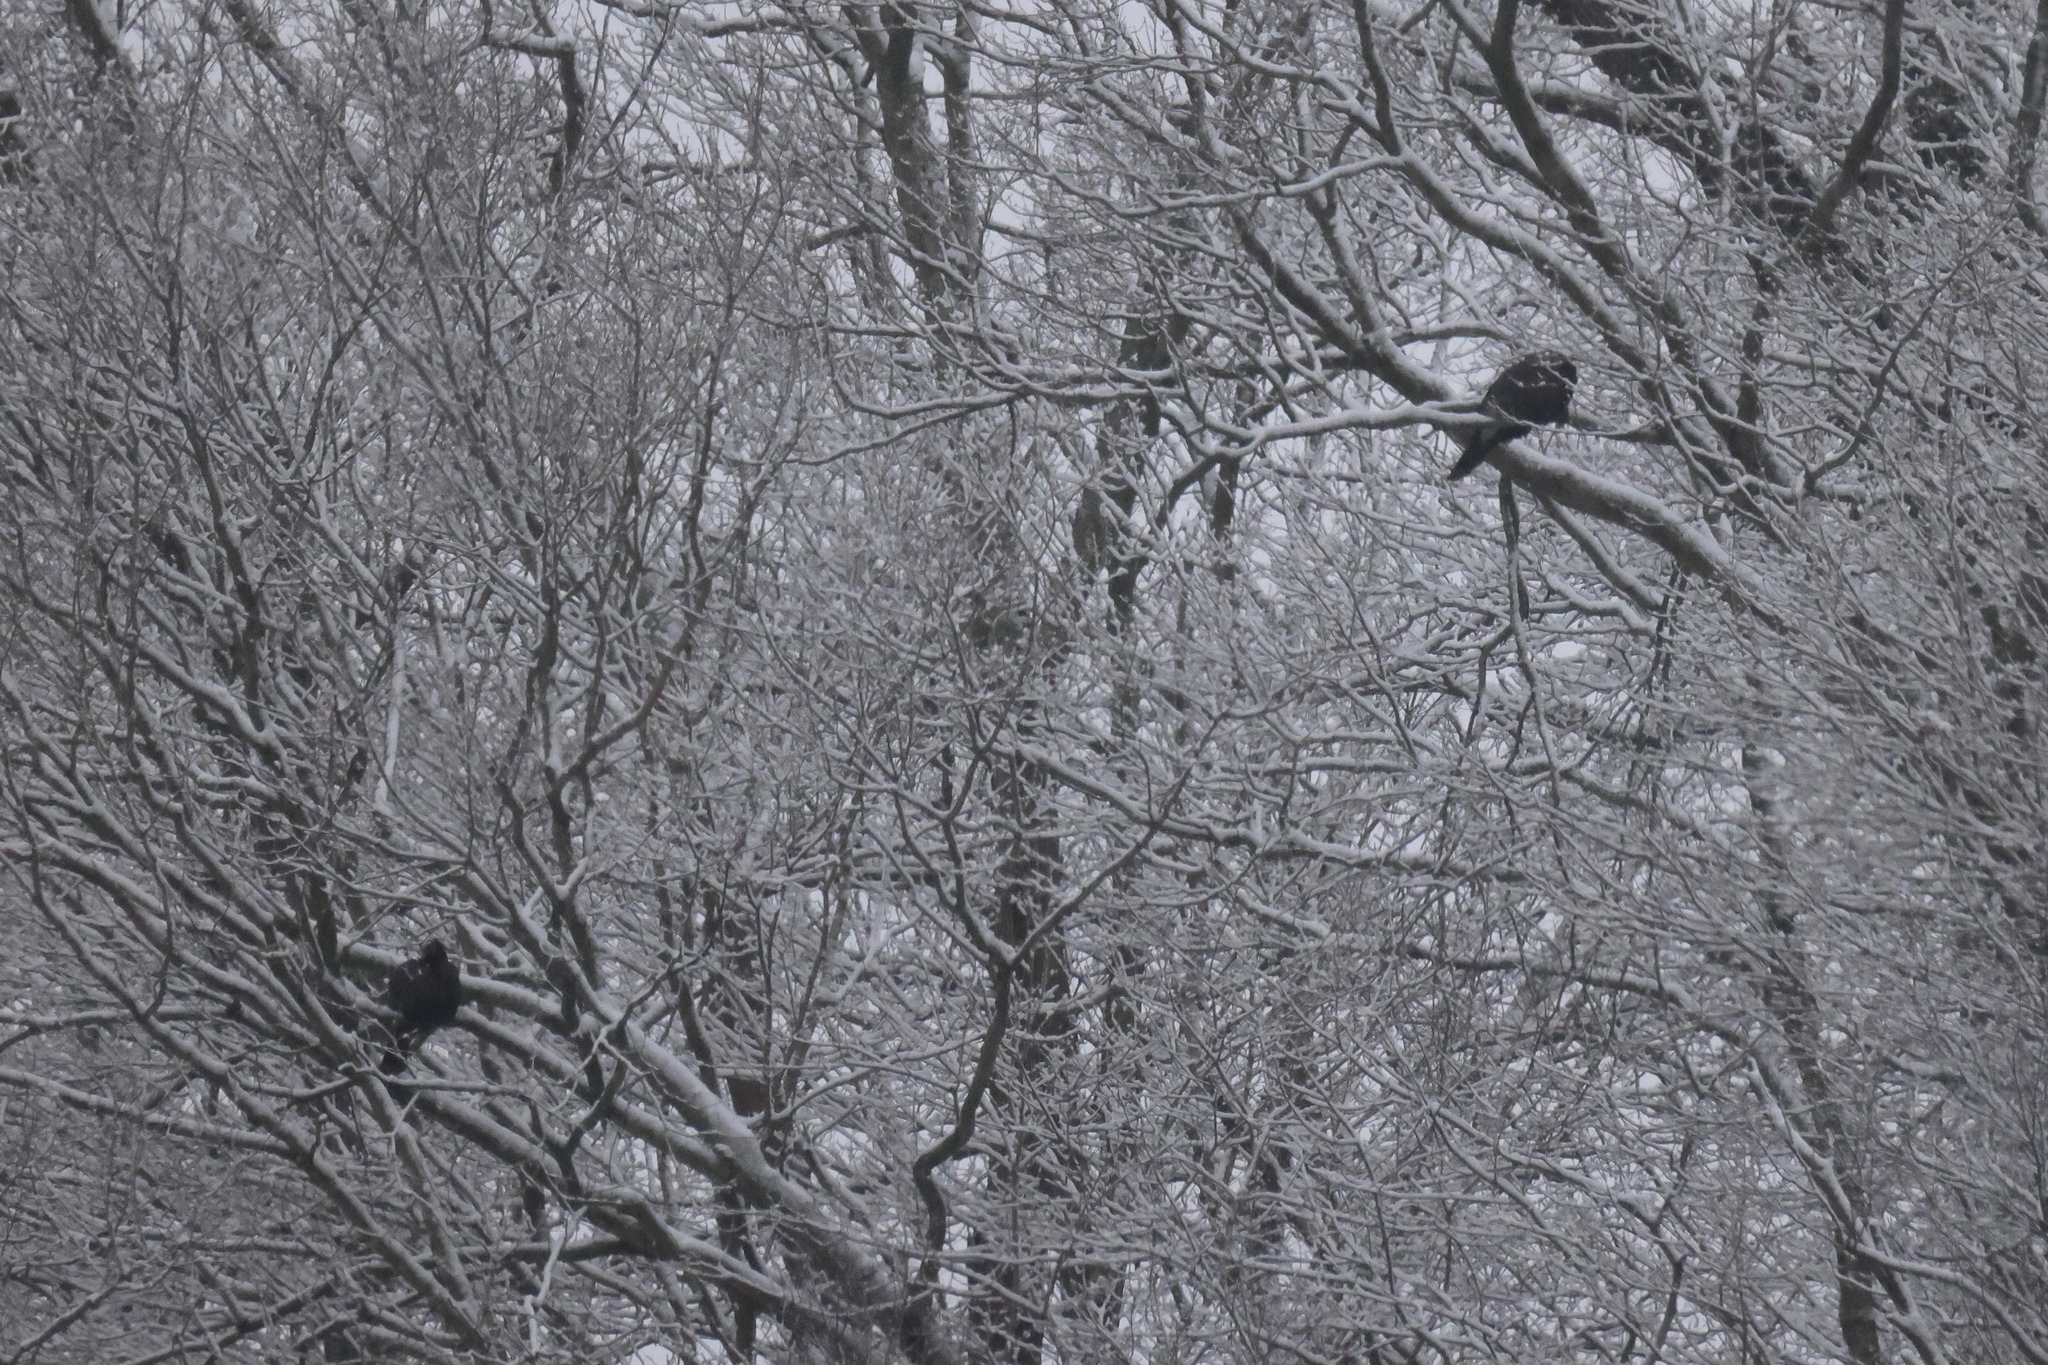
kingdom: Animalia
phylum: Chordata
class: Aves
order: Galliformes
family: Phasianidae
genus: Meleagris
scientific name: Meleagris gallopavo
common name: Wild turkey
